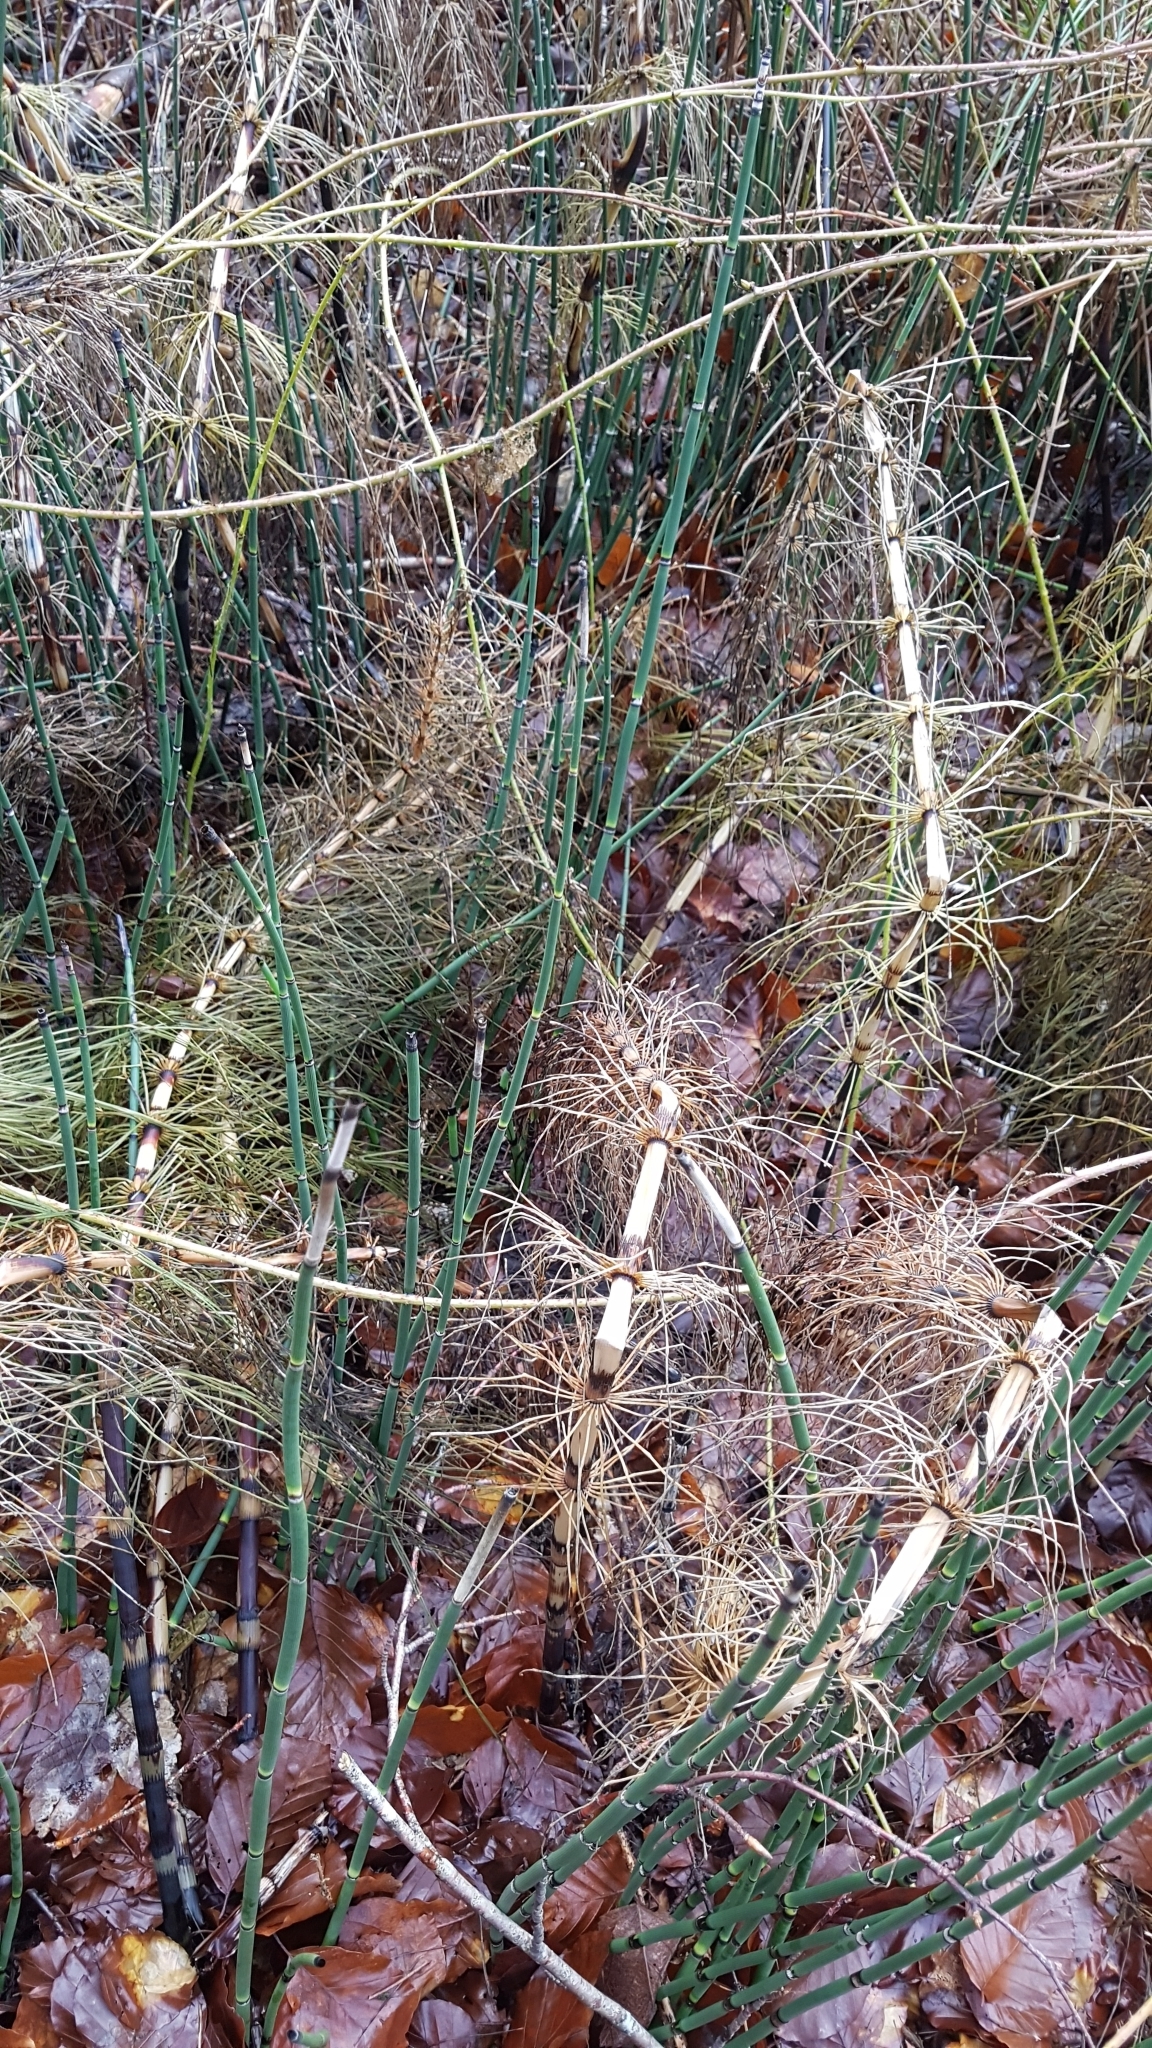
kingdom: Plantae
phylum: Tracheophyta
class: Polypodiopsida
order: Equisetales
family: Equisetaceae
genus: Equisetum
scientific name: Equisetum telmateia
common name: Great horsetail
